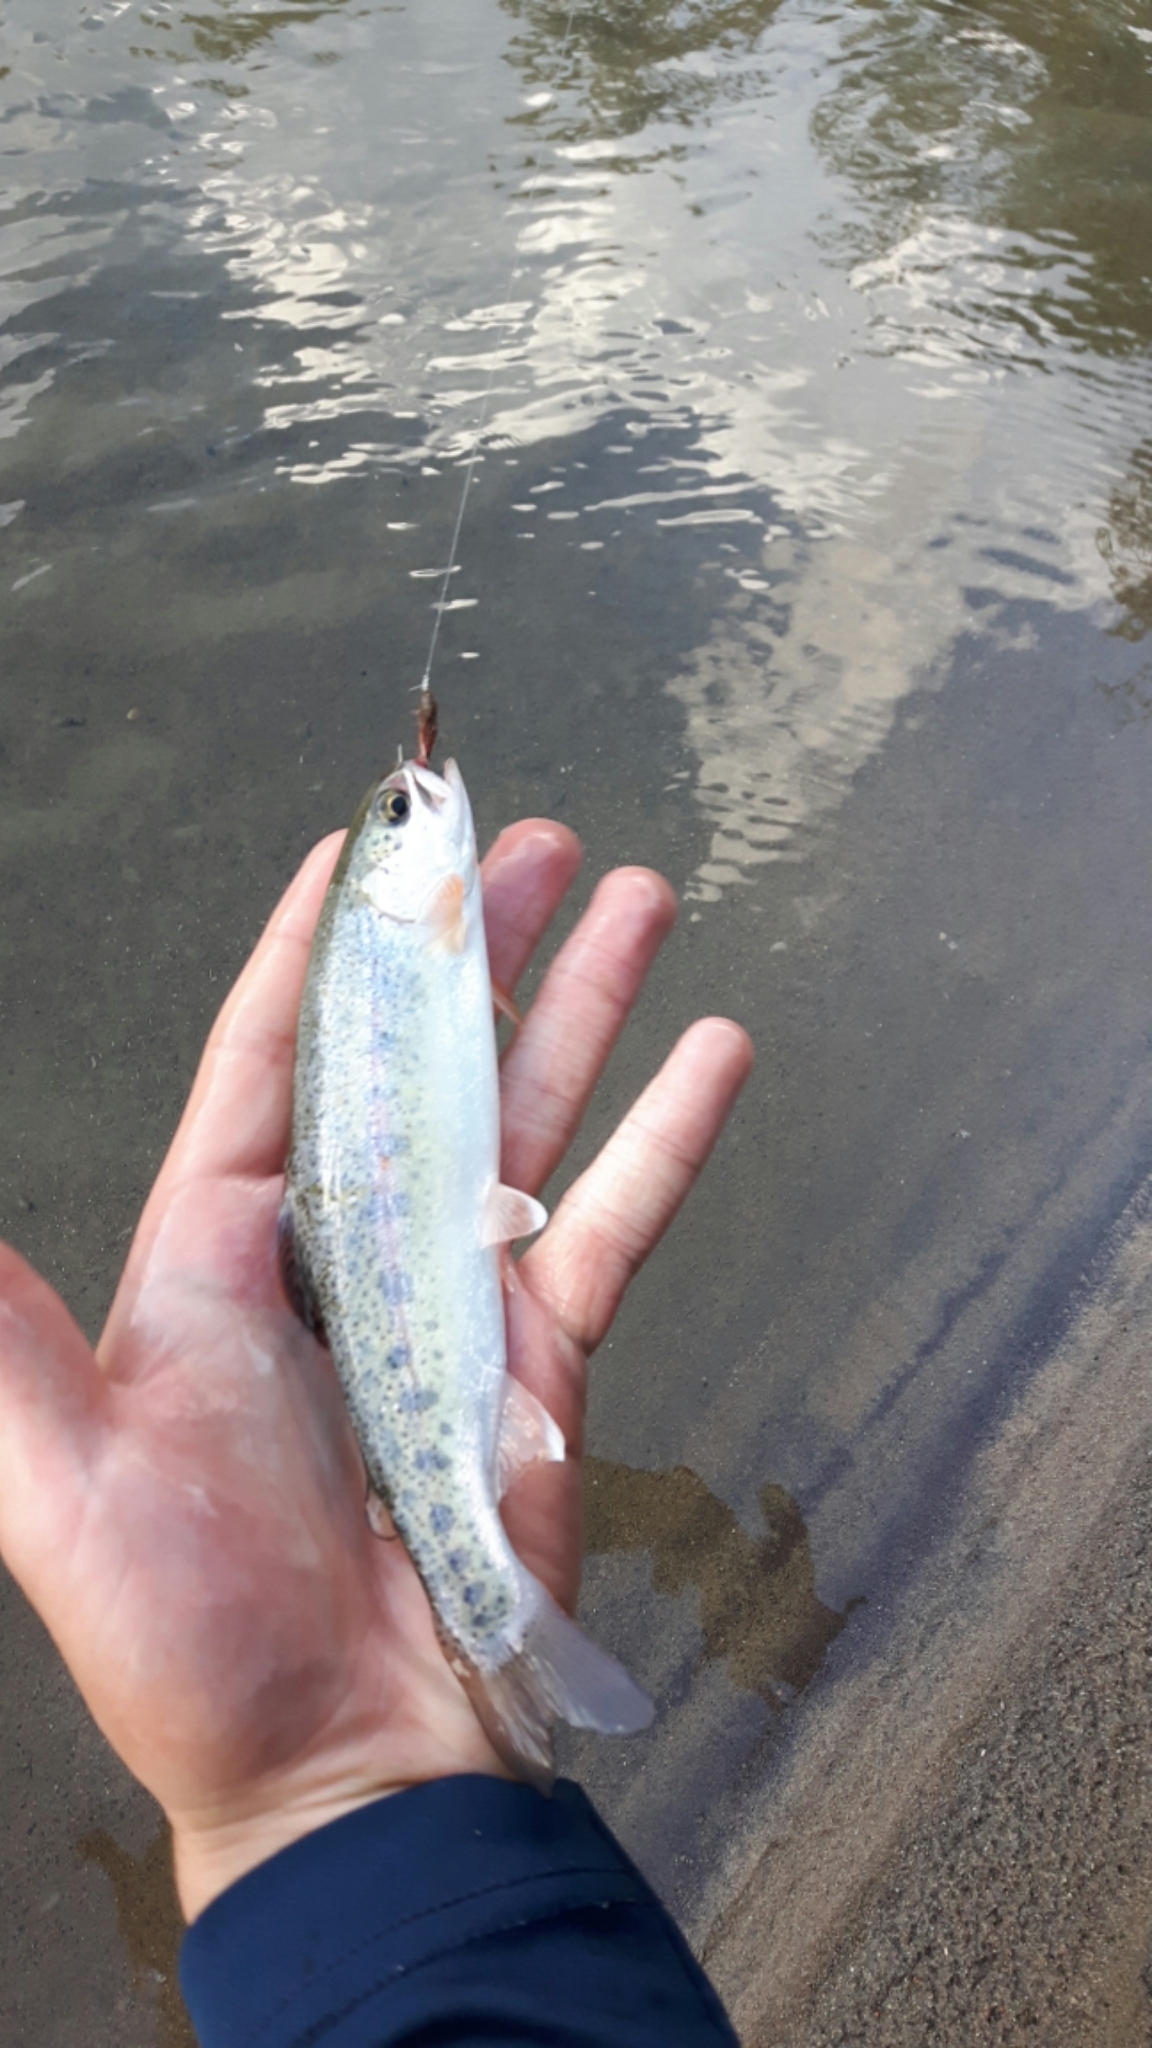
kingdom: Animalia
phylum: Chordata
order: Salmoniformes
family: Salmonidae
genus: Oncorhynchus
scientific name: Oncorhynchus mykiss
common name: Rainbow trout
